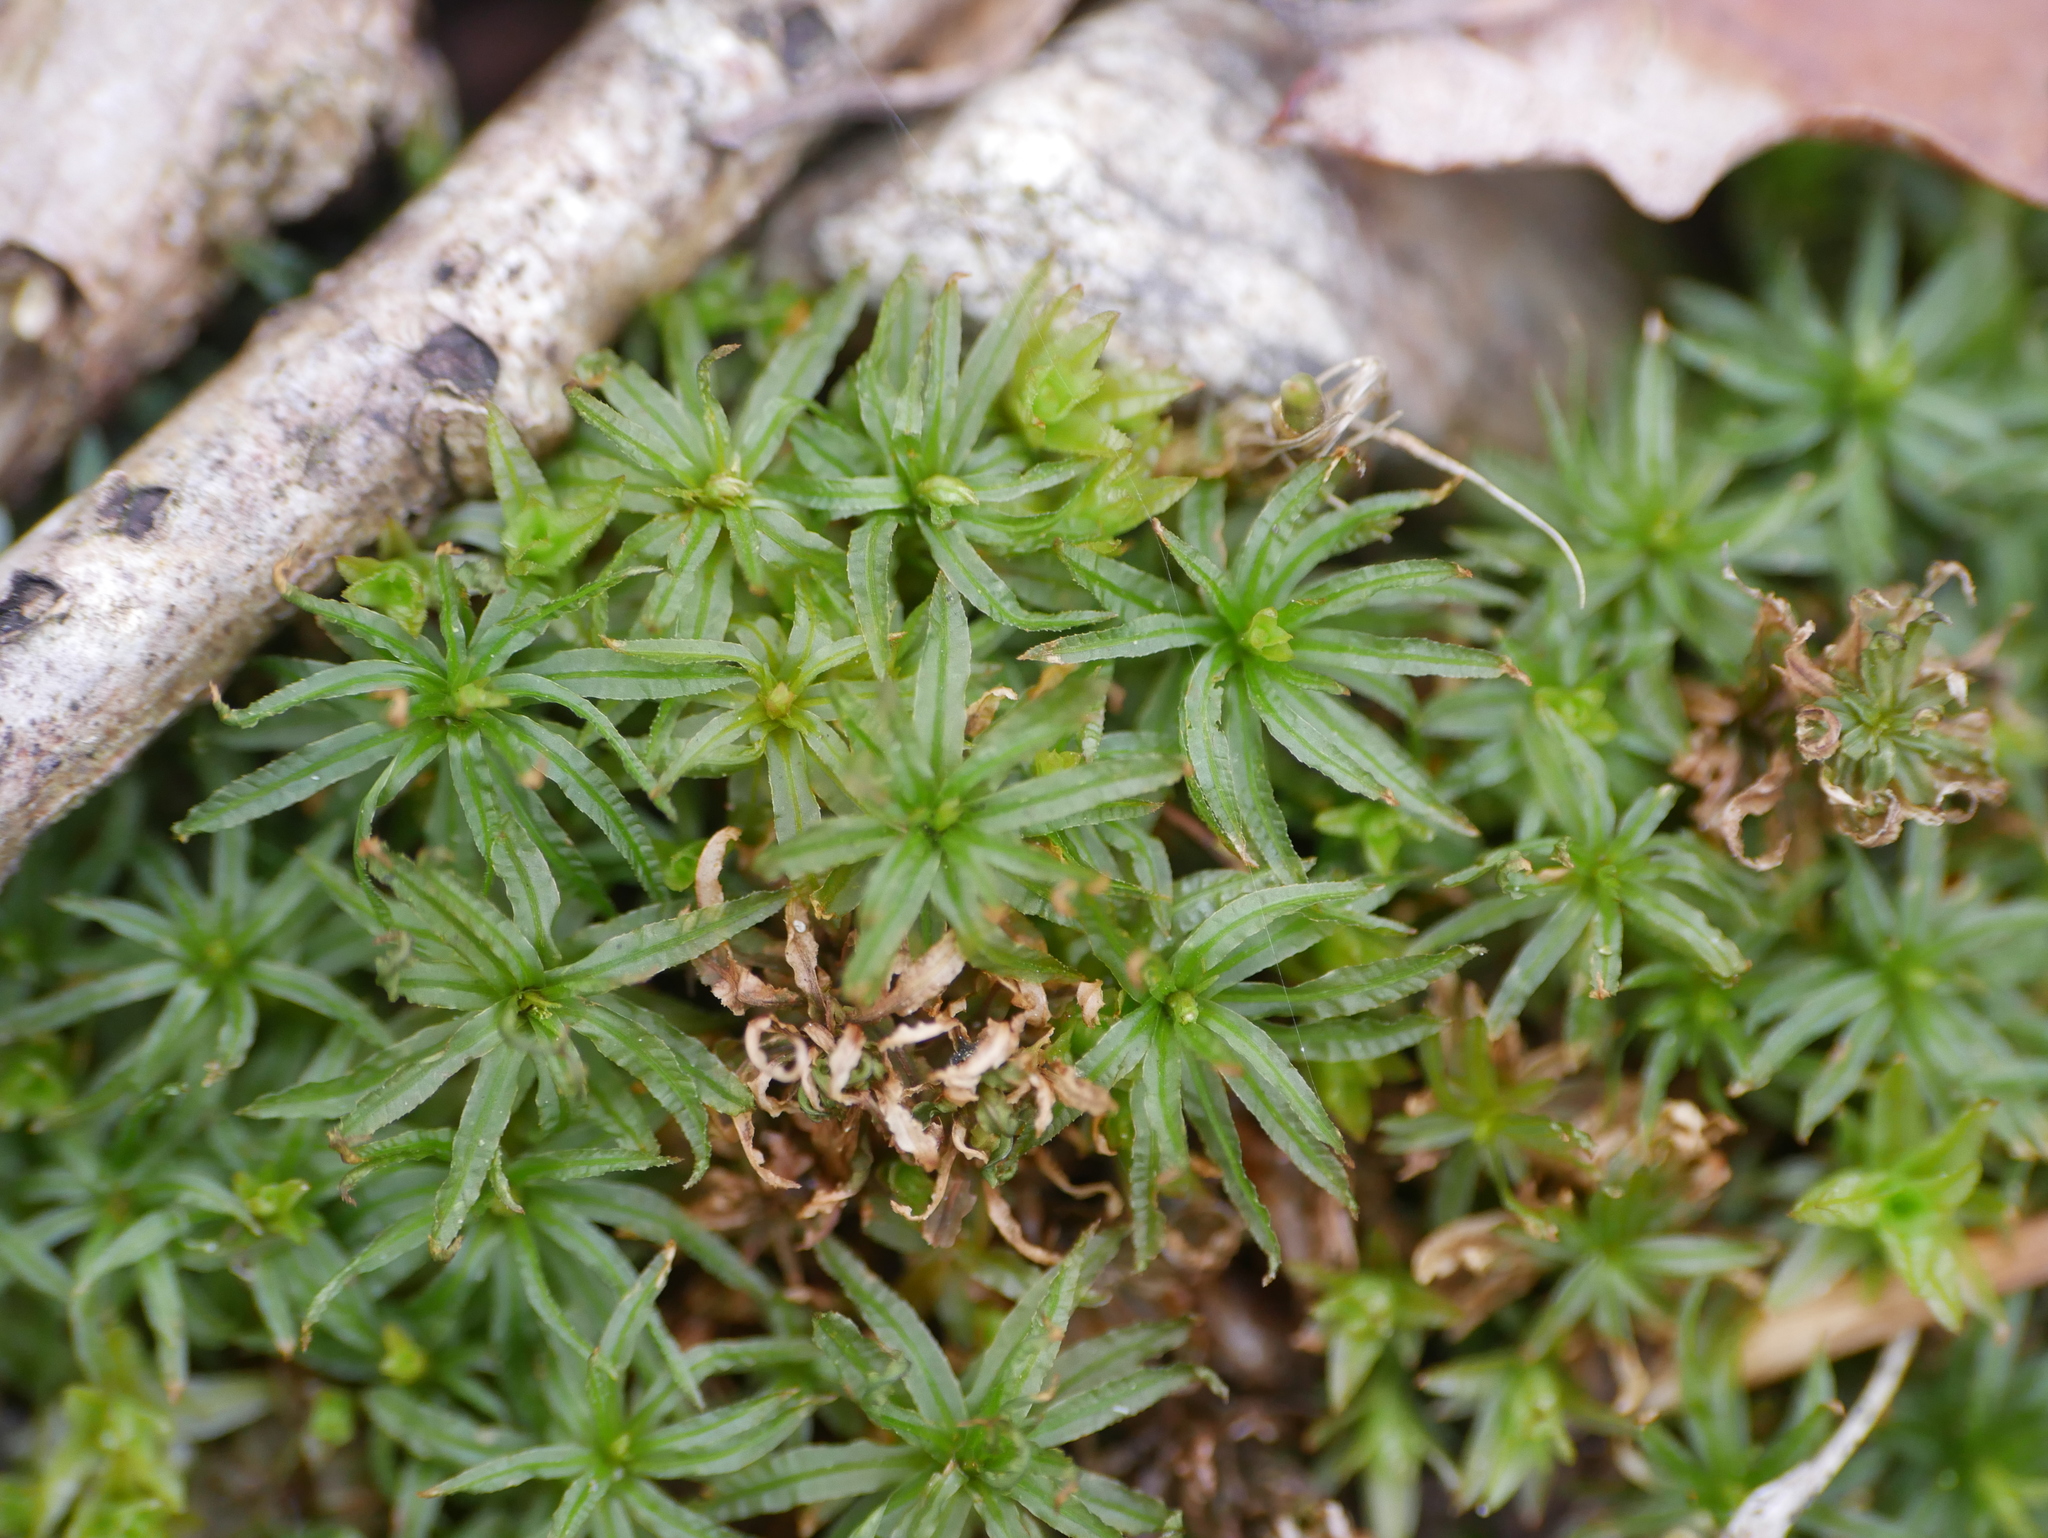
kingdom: Plantae
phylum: Bryophyta
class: Polytrichopsida
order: Polytrichales
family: Polytrichaceae
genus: Atrichum
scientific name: Atrichum undulatum
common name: Common smoothcap
